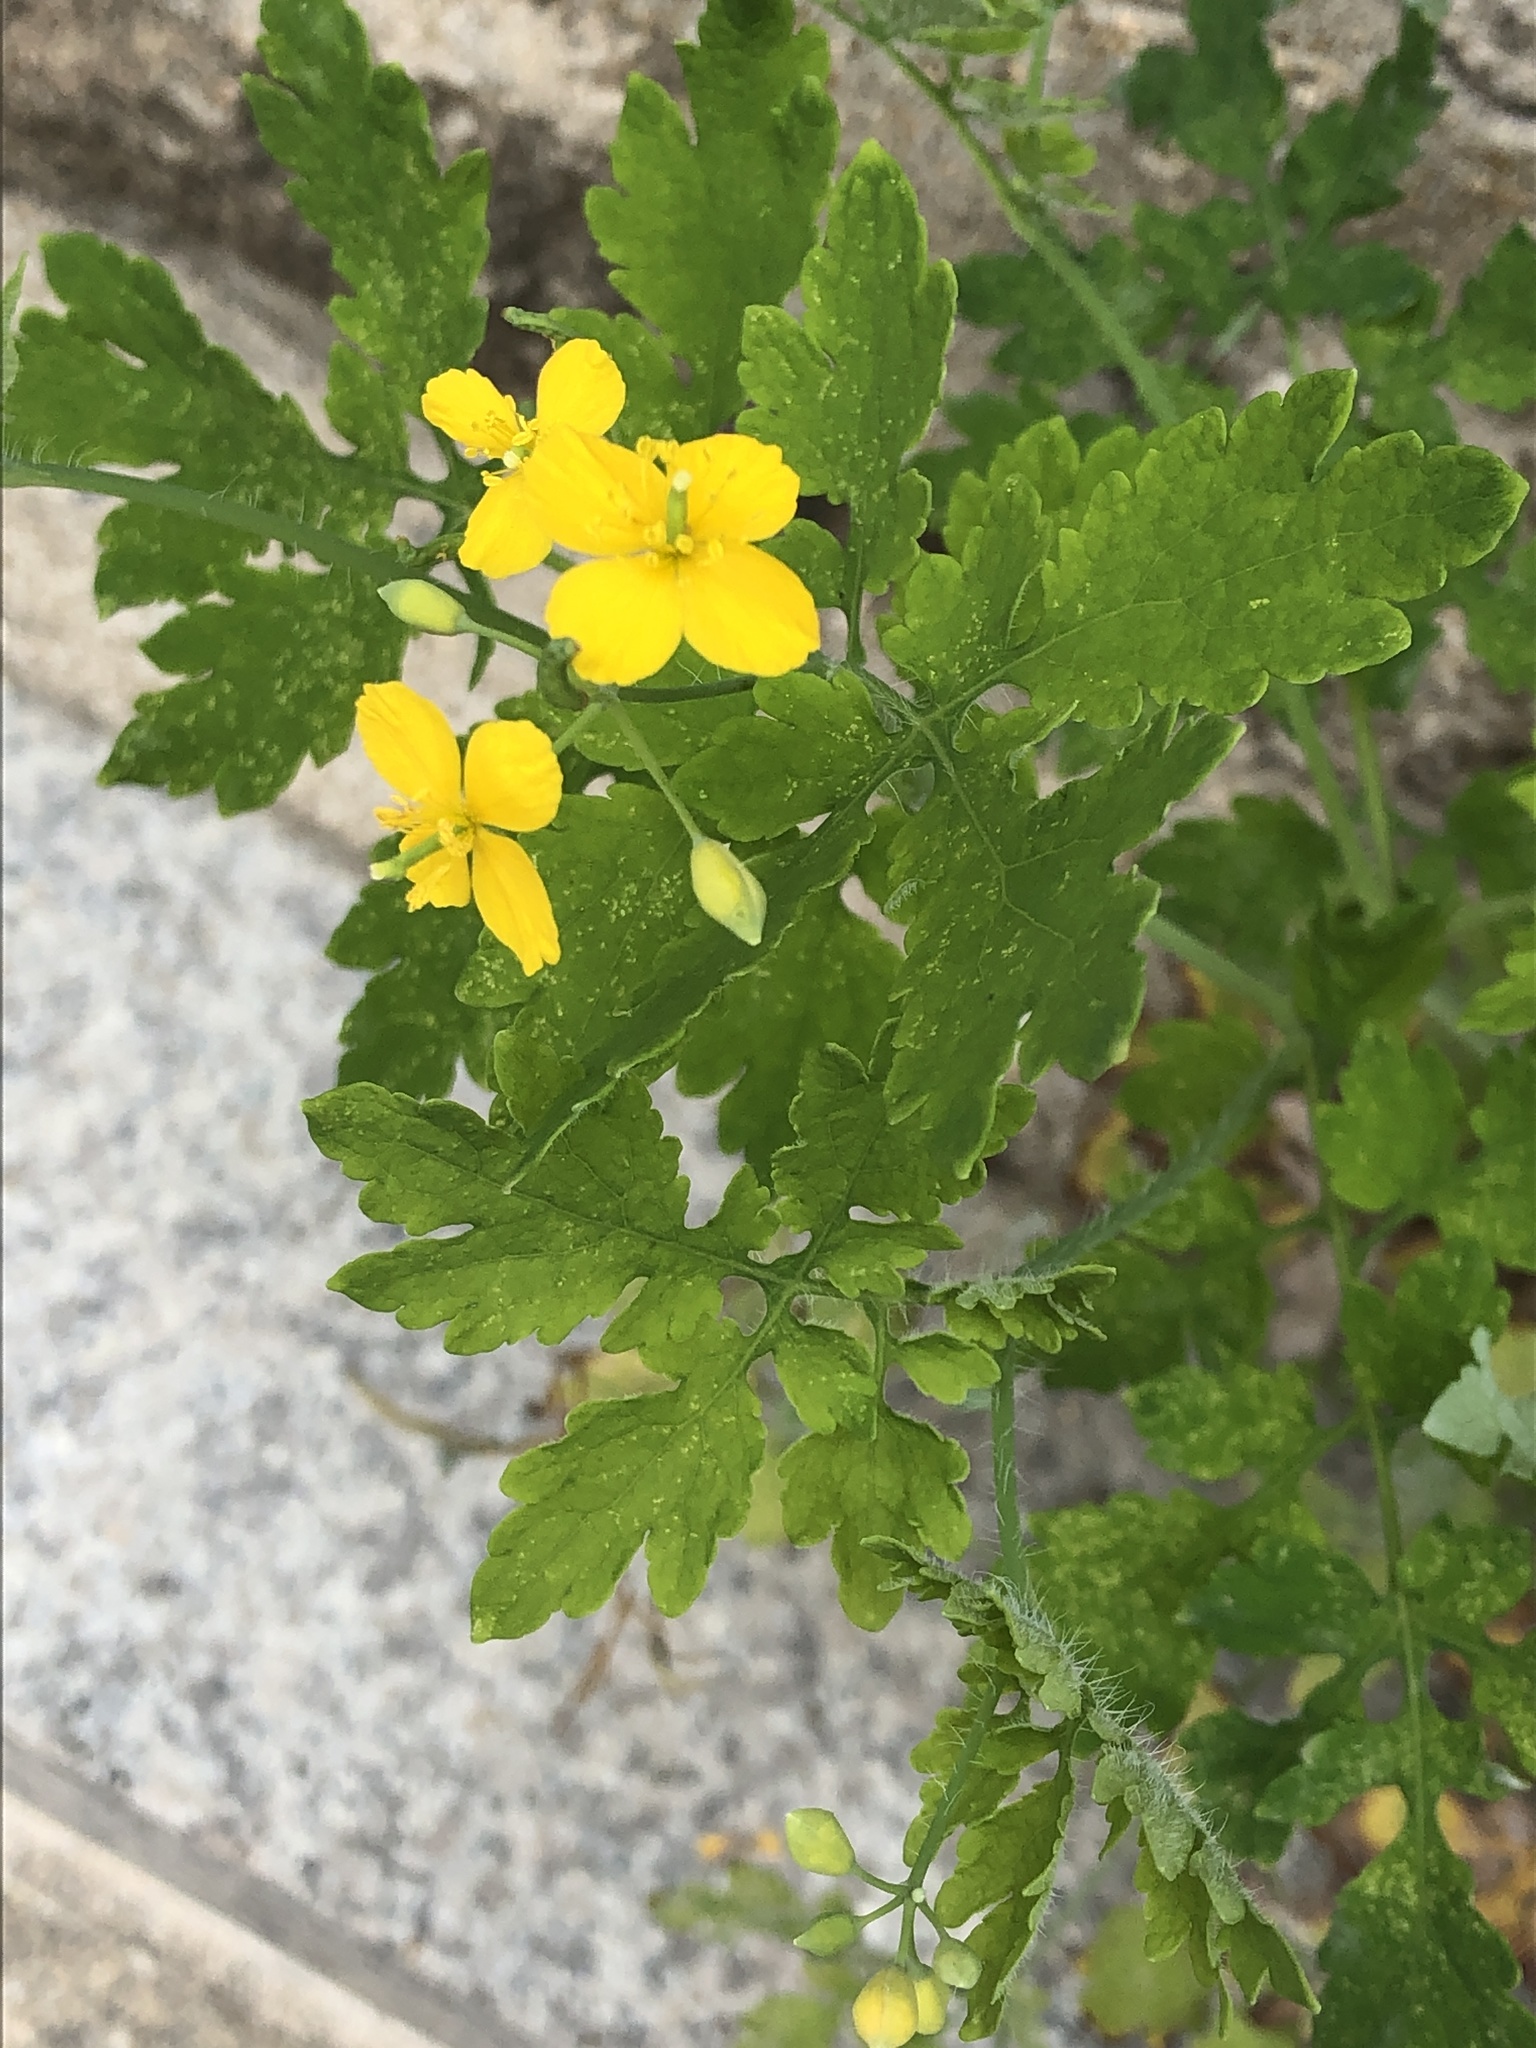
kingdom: Plantae
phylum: Tracheophyta
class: Magnoliopsida
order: Ranunculales
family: Papaveraceae
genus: Chelidonium
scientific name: Chelidonium majus
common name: Greater celandine
